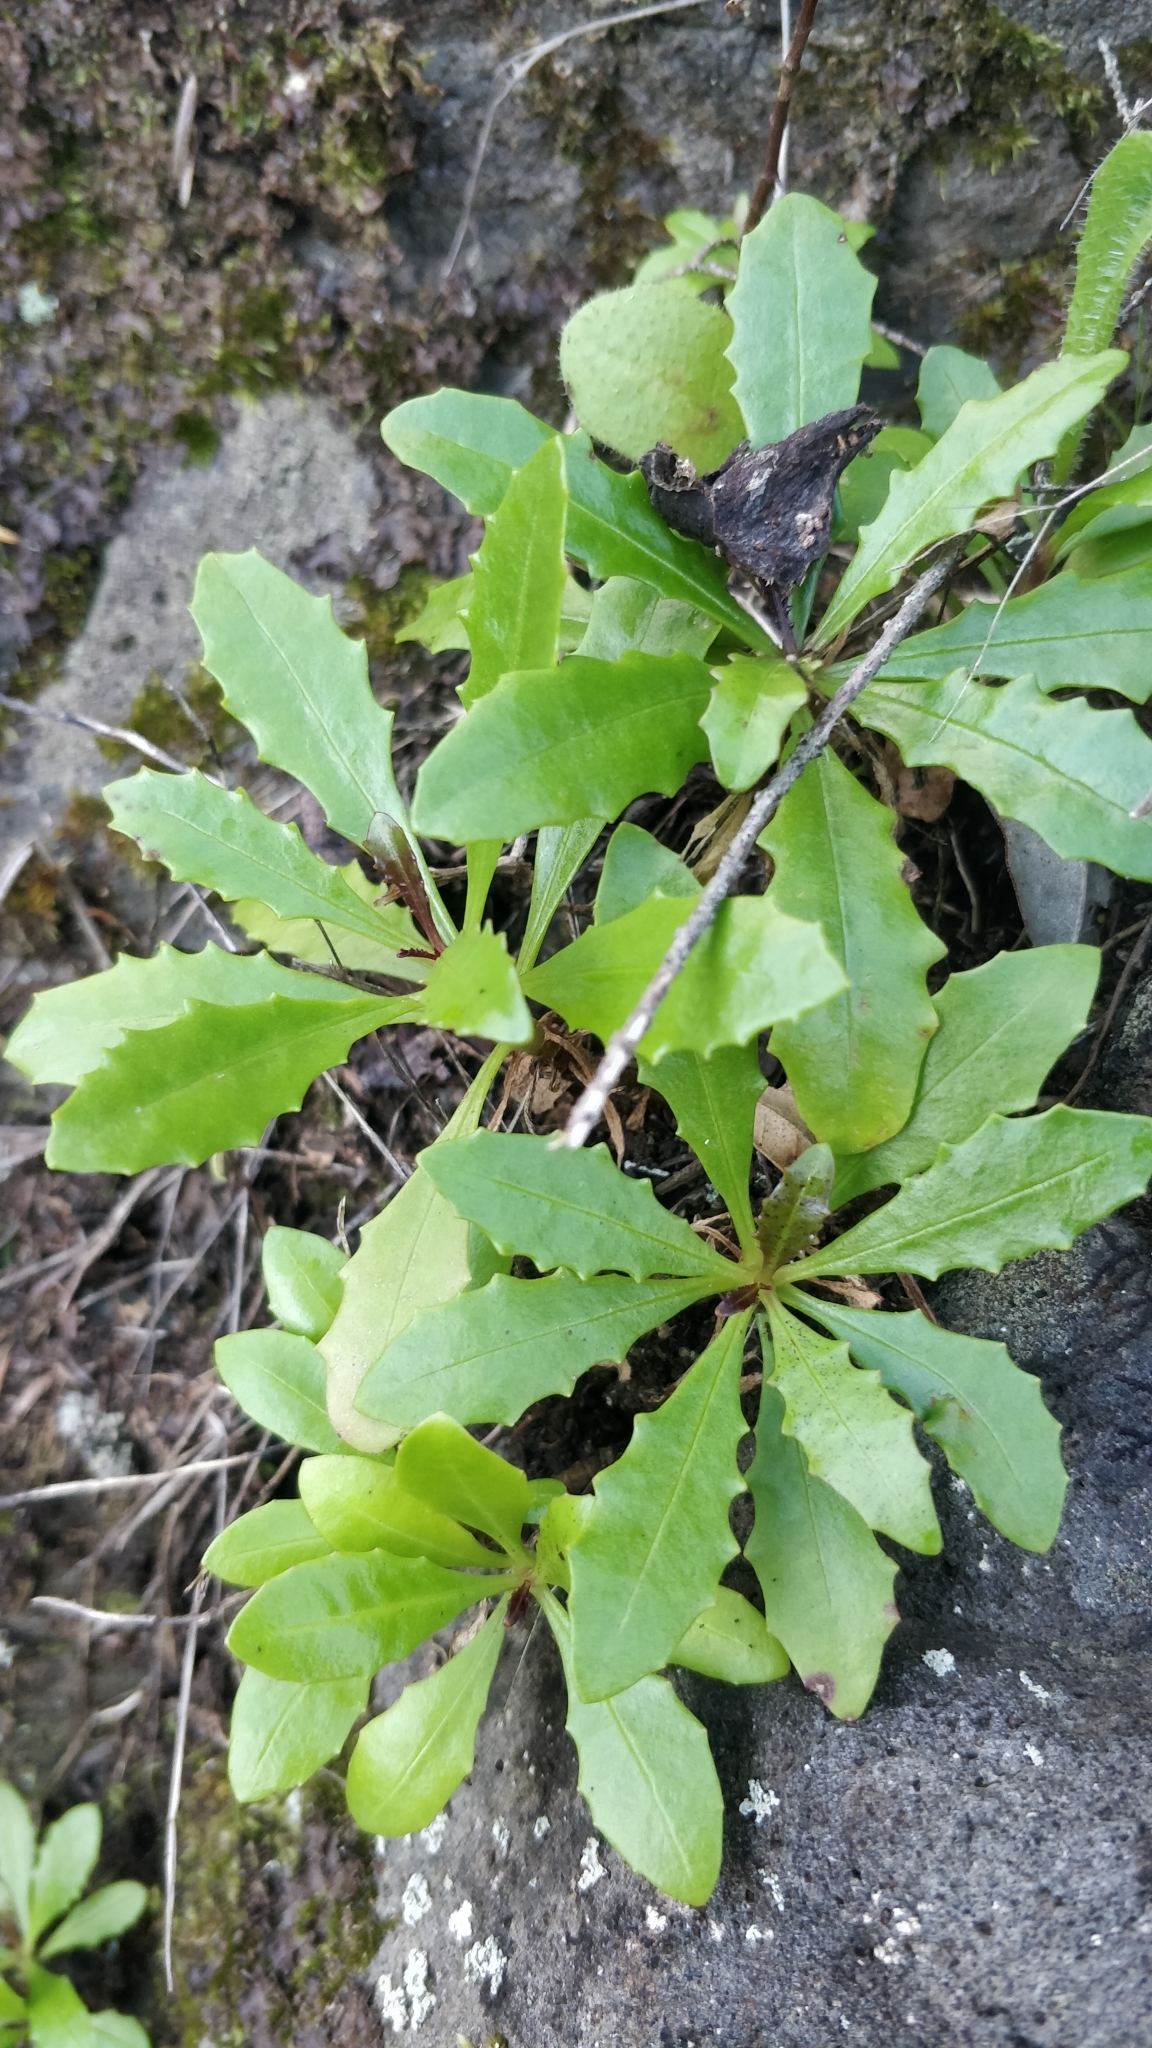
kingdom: Plantae
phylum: Tracheophyta
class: Magnoliopsida
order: Asterales
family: Asteraceae
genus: Tolpis
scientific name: Tolpis succulenta
